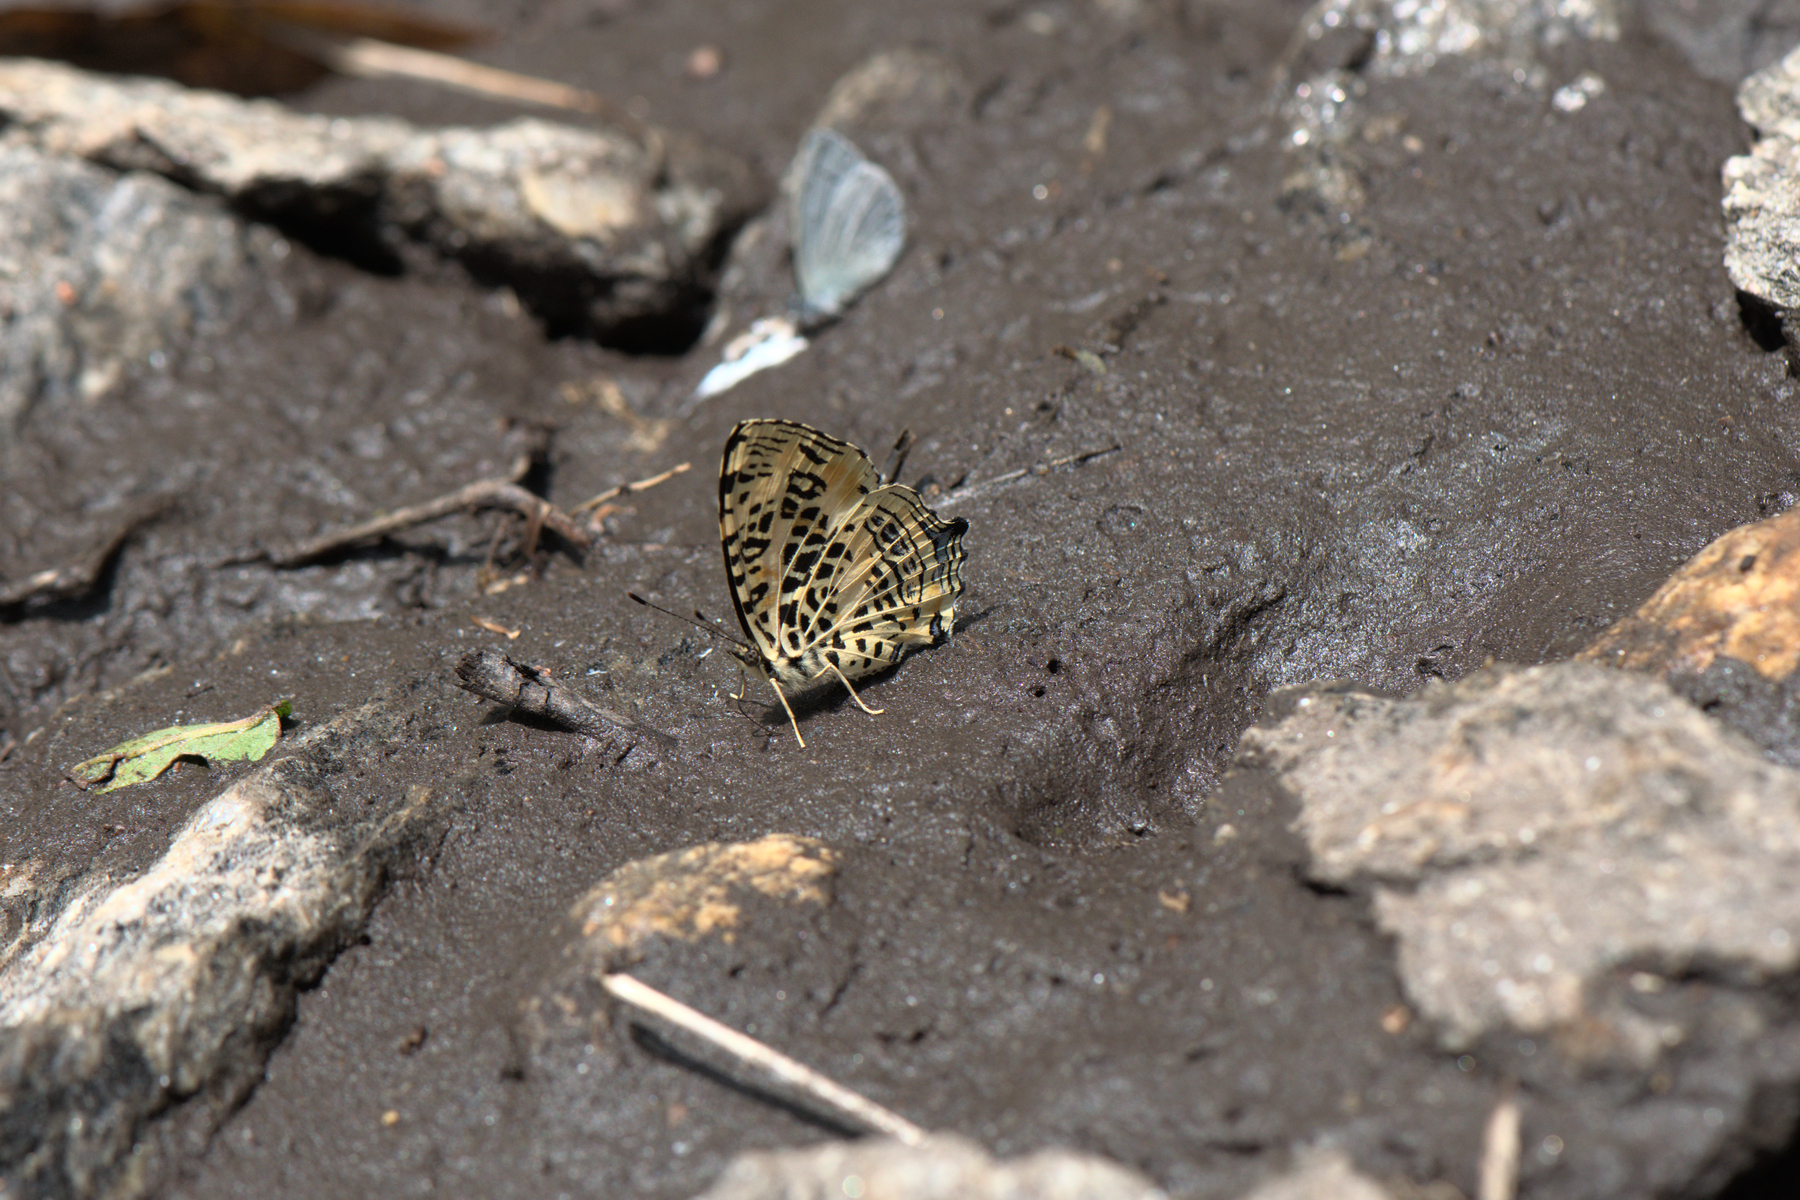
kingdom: Animalia
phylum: Arthropoda
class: Insecta
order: Lepidoptera
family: Nymphalidae
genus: Symbrenthia
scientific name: Symbrenthia niphanda
